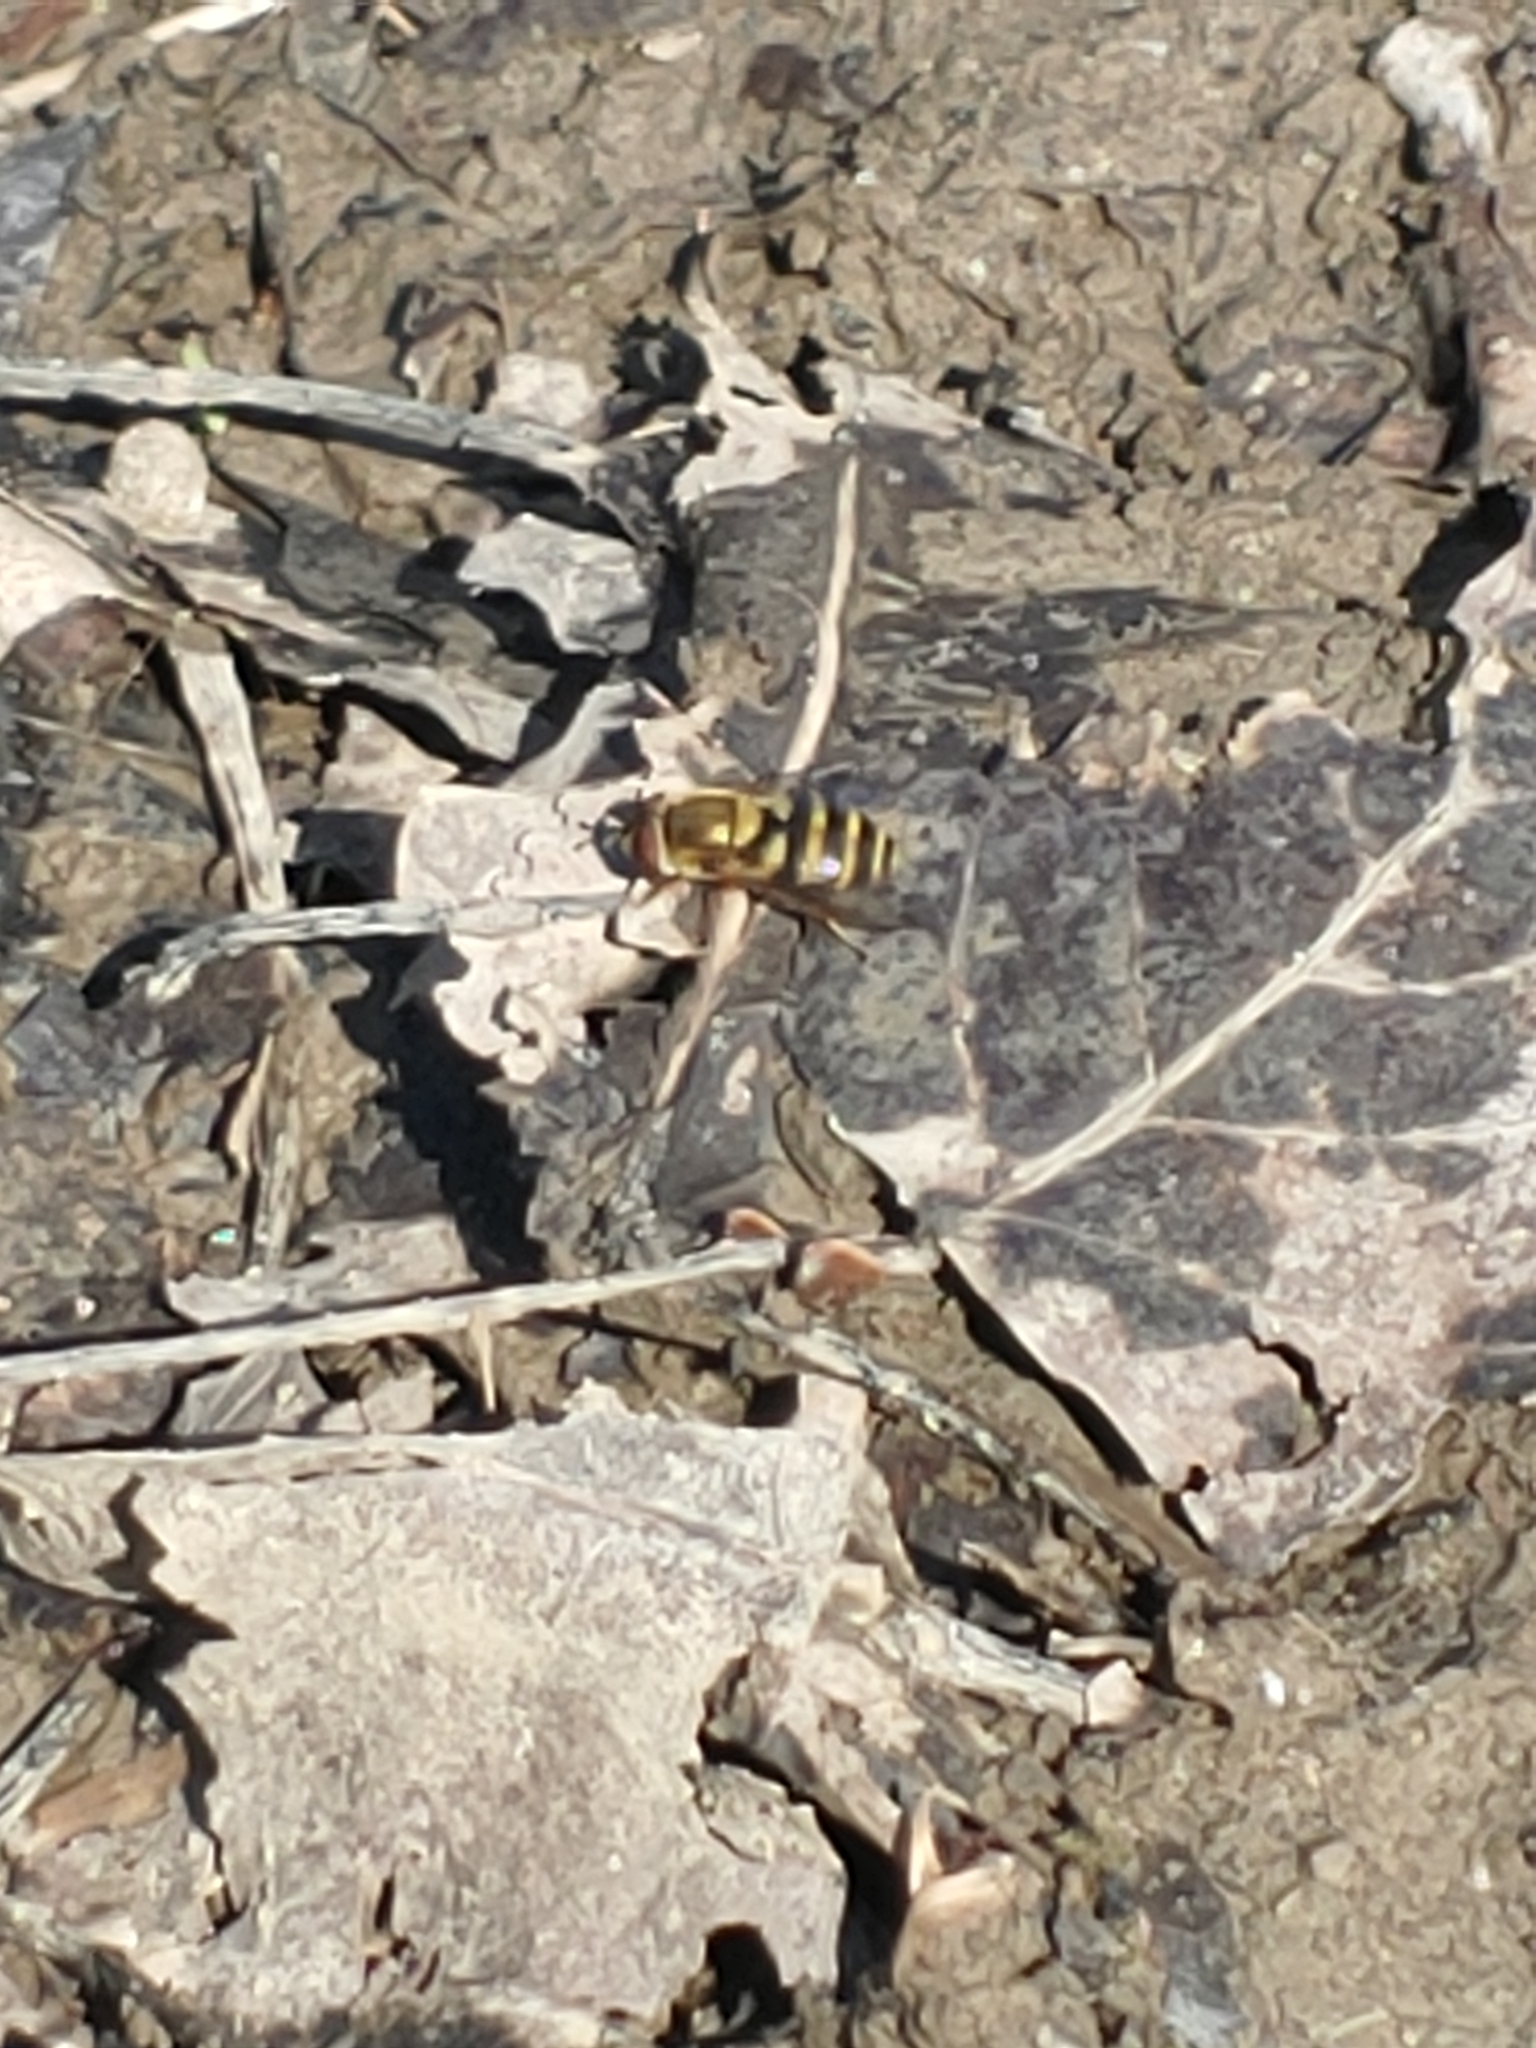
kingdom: Animalia
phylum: Arthropoda
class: Insecta
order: Diptera
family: Syrphidae
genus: Syrphus
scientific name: Syrphus
